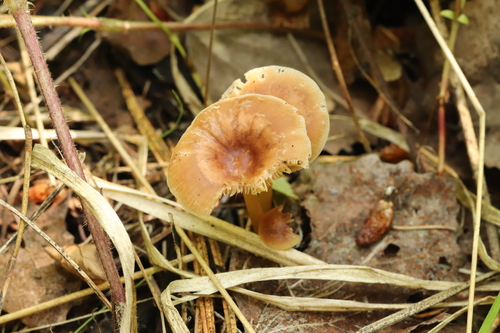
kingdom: Fungi
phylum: Basidiomycota
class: Agaricomycetes
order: Agaricales
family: Omphalotaceae
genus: Gymnopus
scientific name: Gymnopus dryophilus
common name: Penny top
